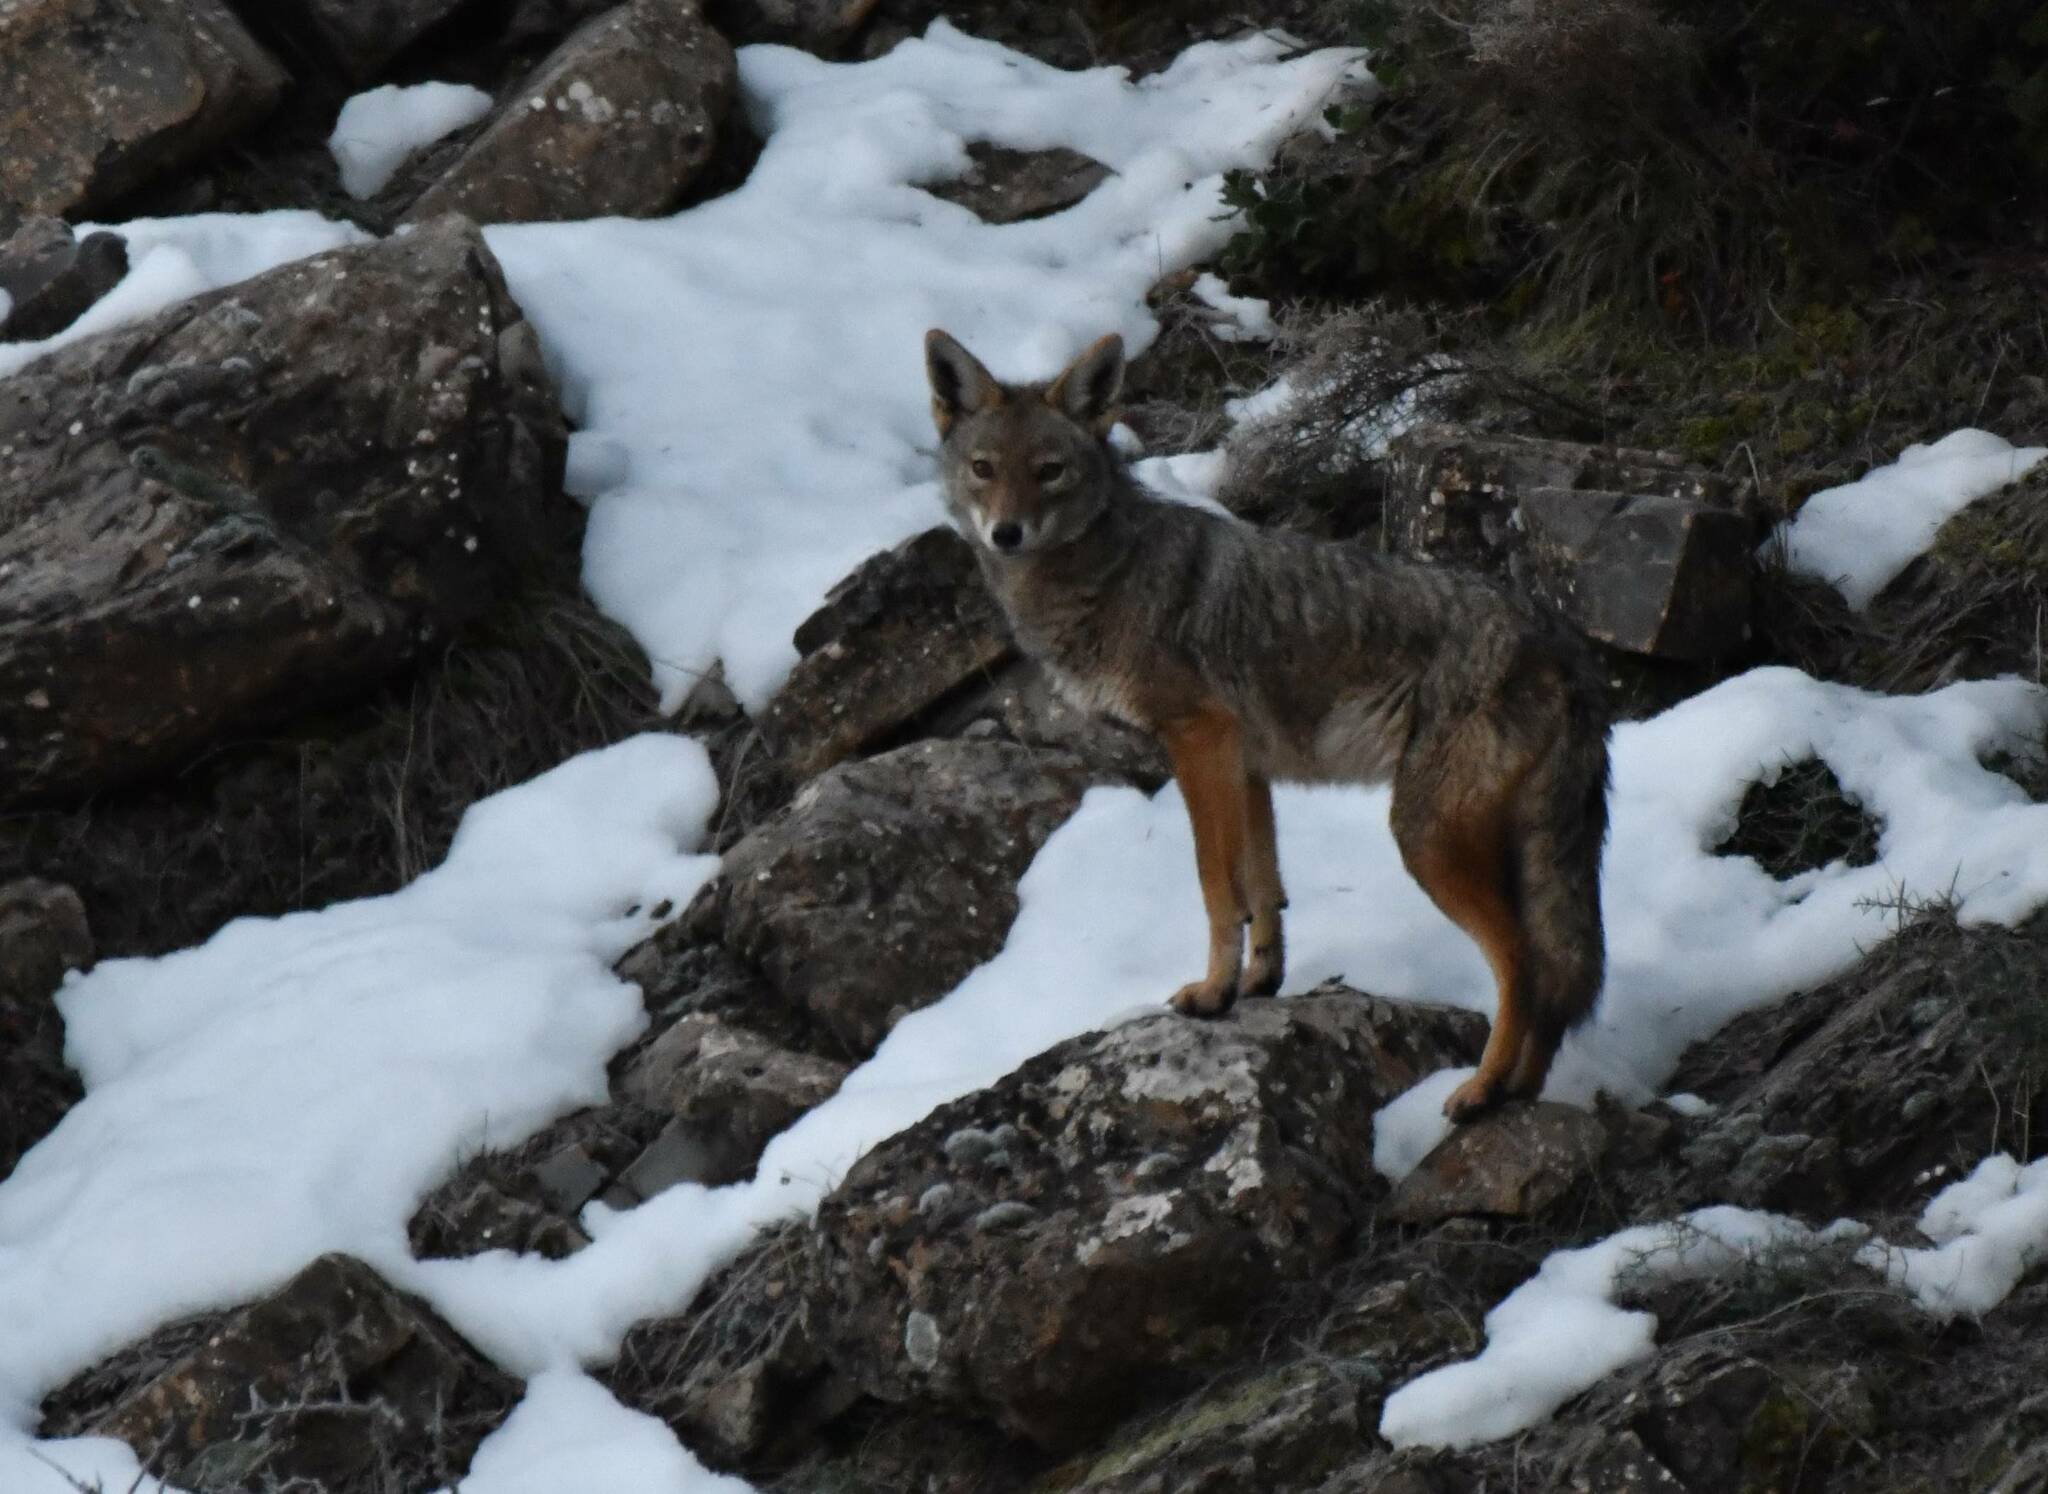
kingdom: Animalia
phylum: Chordata
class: Mammalia
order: Carnivora
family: Canidae
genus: Canis
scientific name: Canis lupaster
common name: African golden wolf
